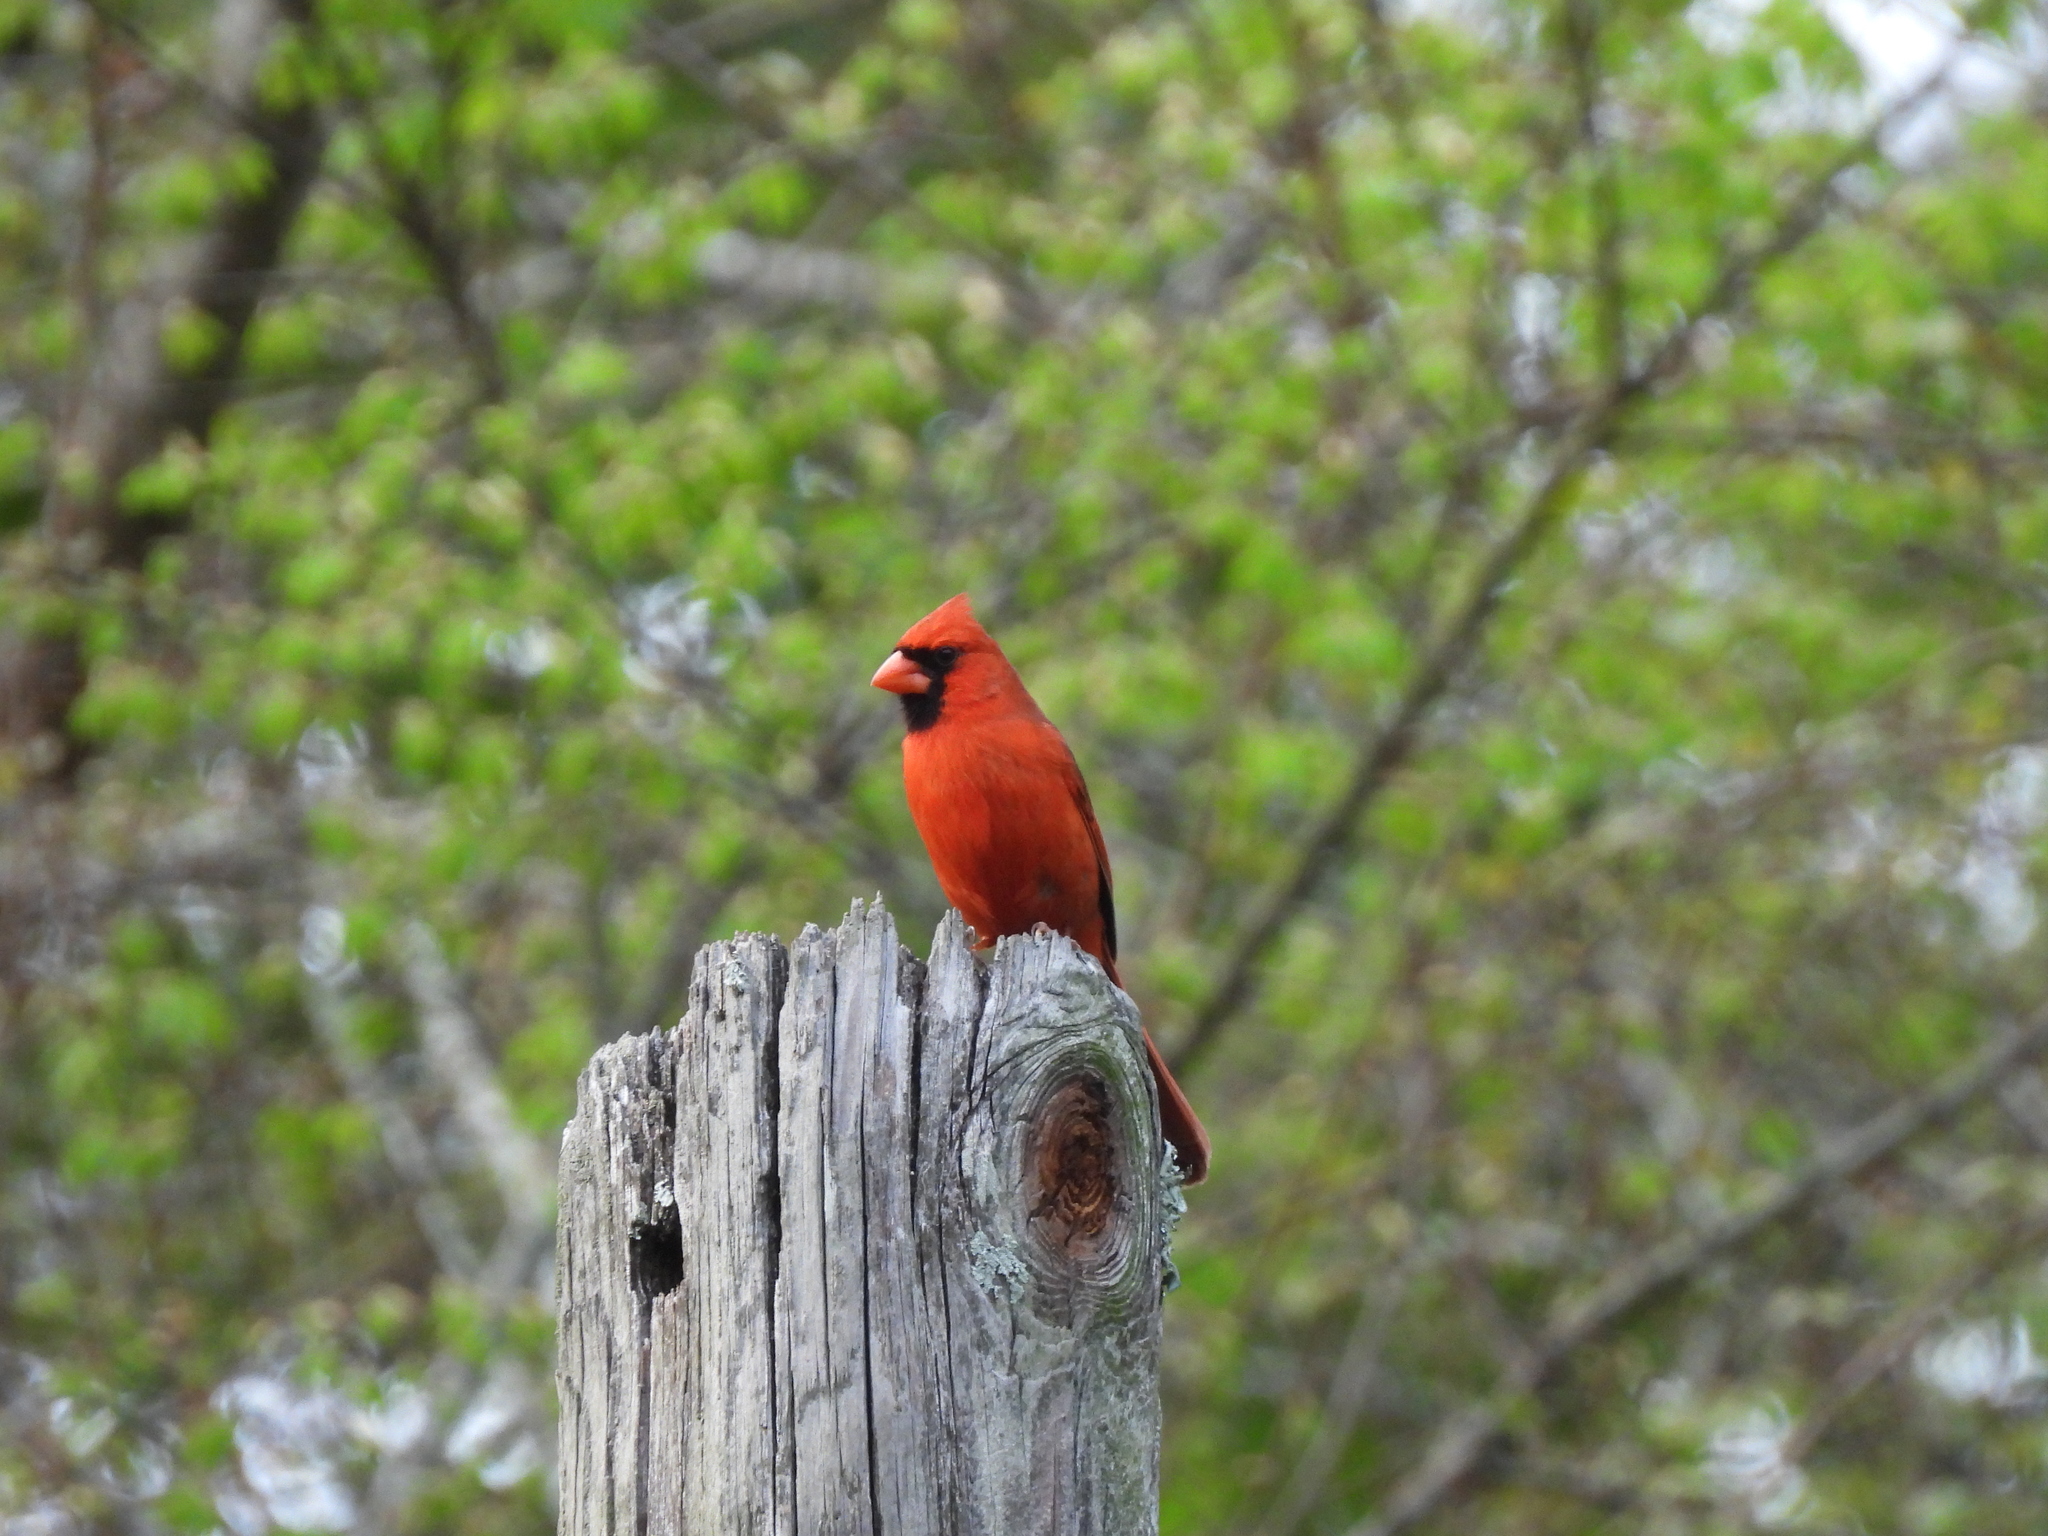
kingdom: Animalia
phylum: Chordata
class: Aves
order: Passeriformes
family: Cardinalidae
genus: Cardinalis
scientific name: Cardinalis cardinalis
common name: Northern cardinal
